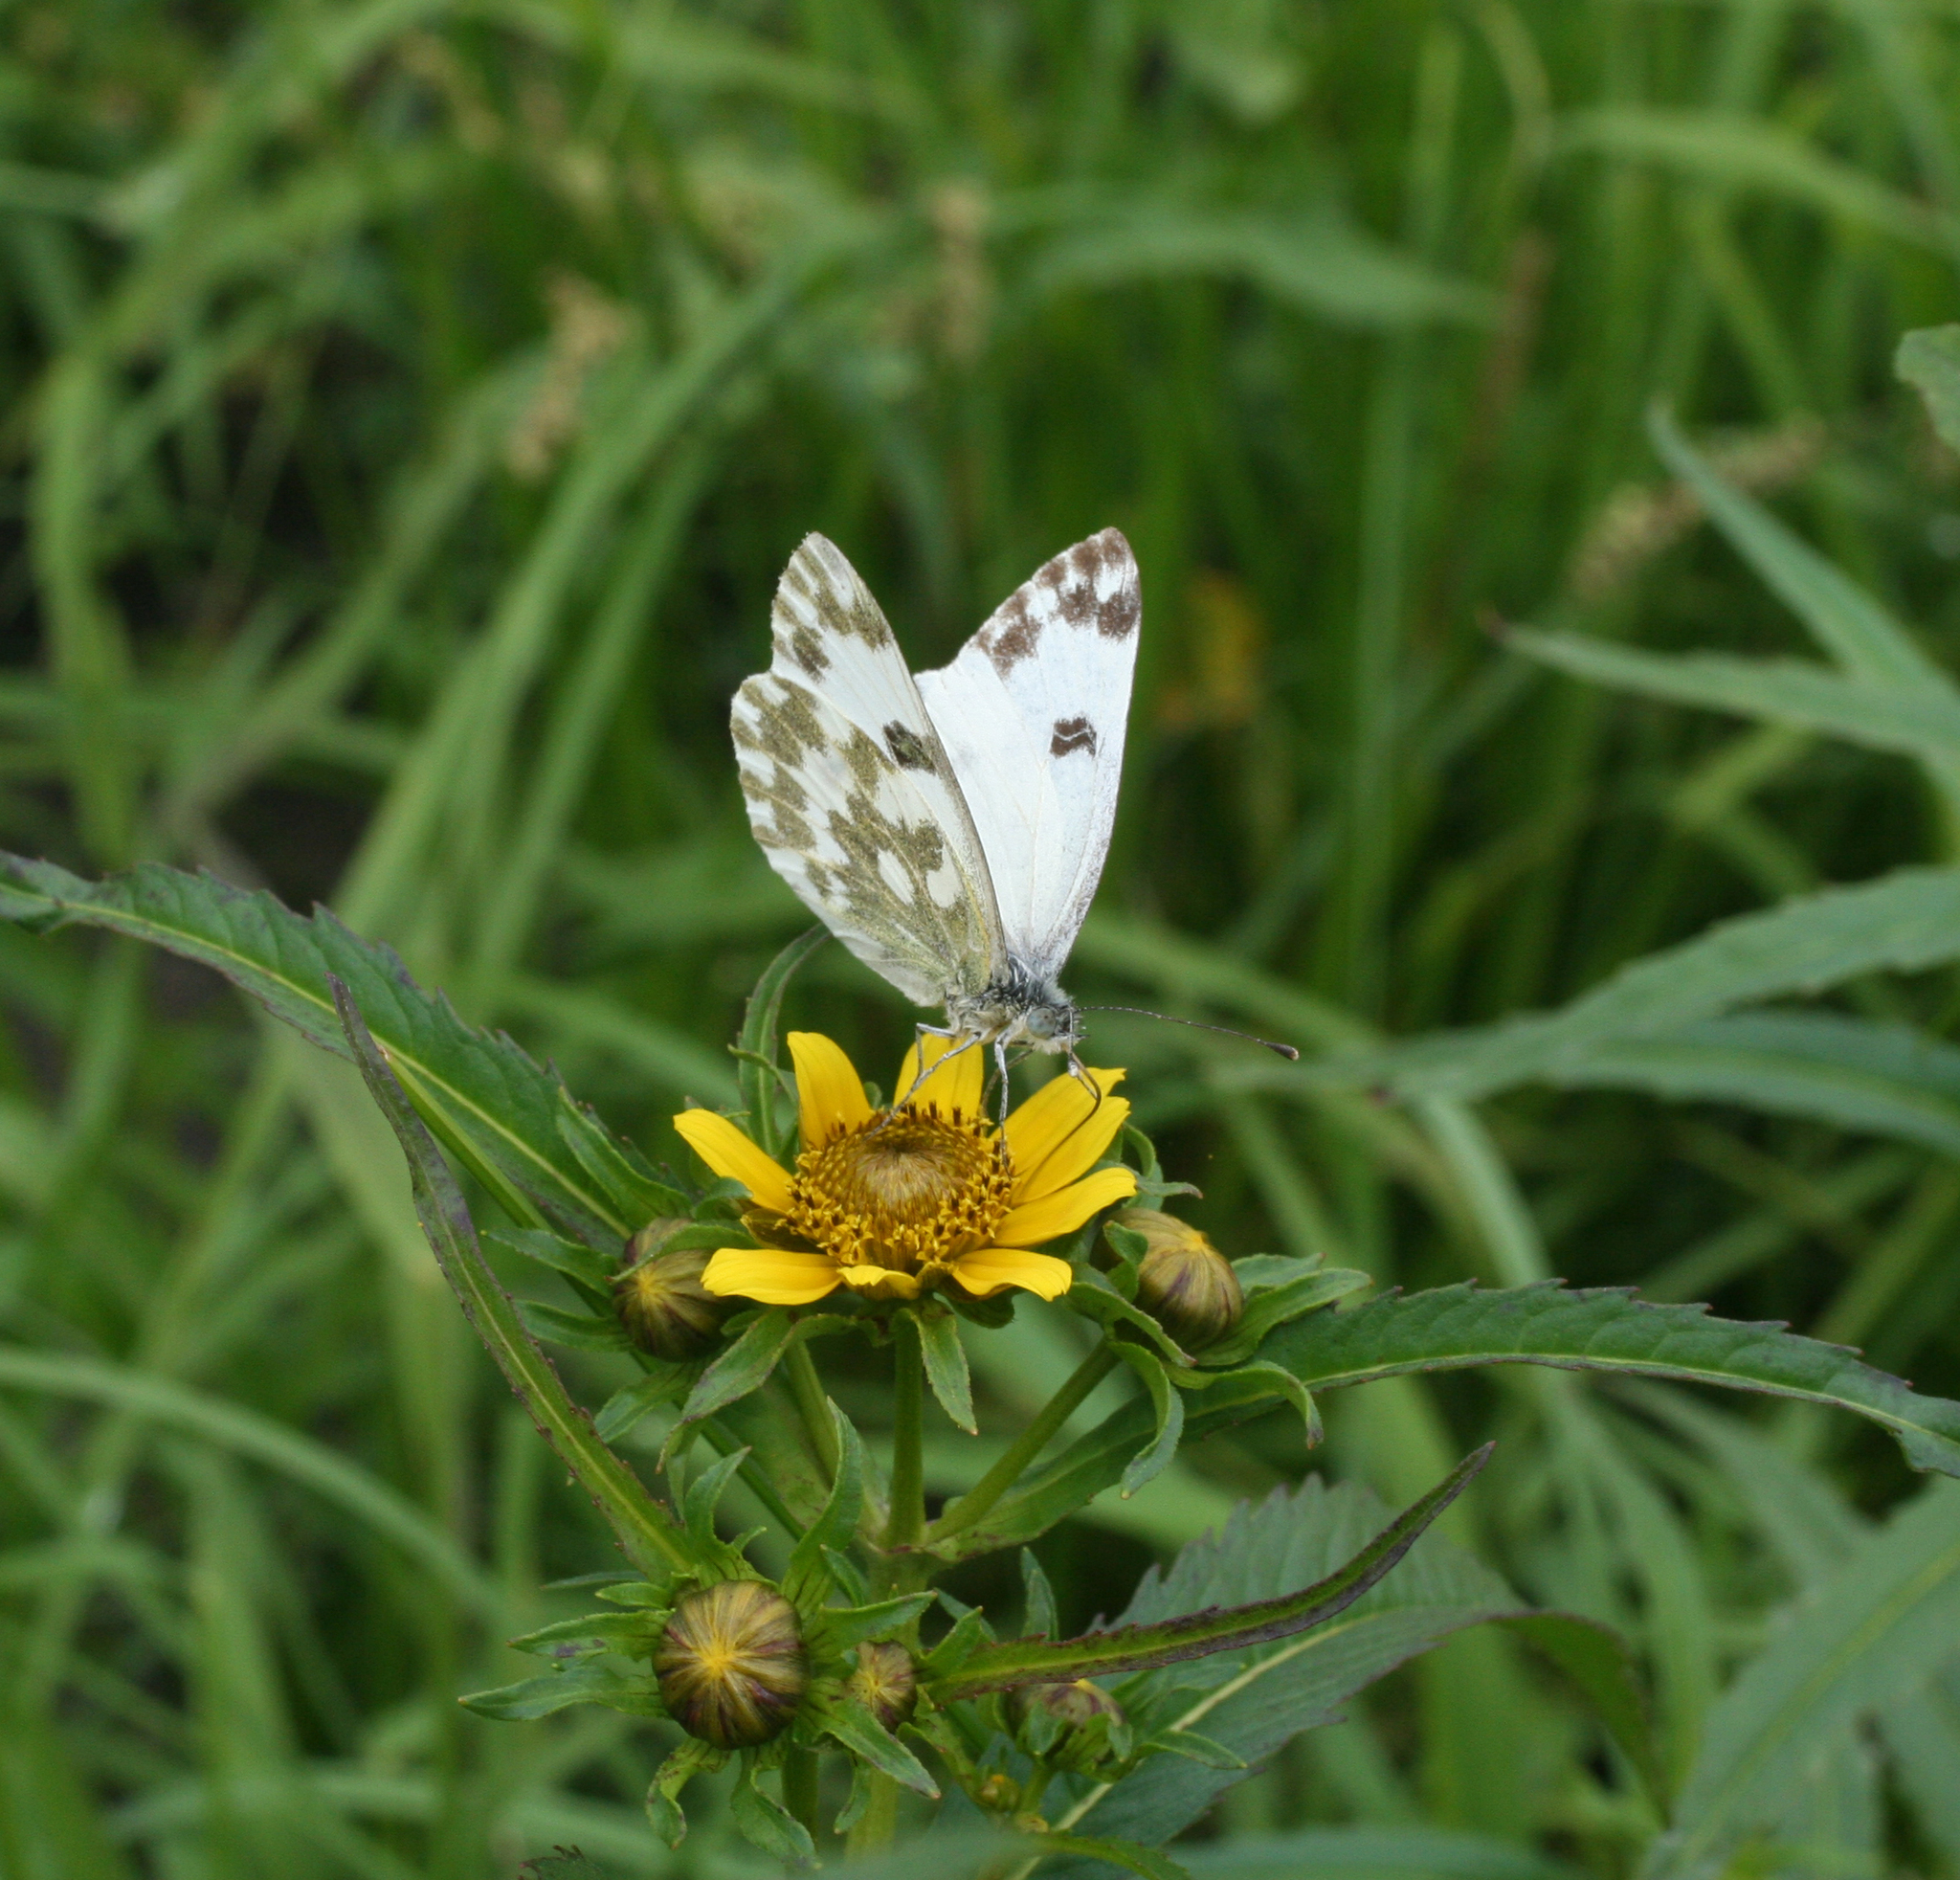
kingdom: Plantae
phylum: Tracheophyta
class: Magnoliopsida
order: Asterales
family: Asteraceae
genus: Bidens
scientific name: Bidens cernua
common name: Nodding bur-marigold
